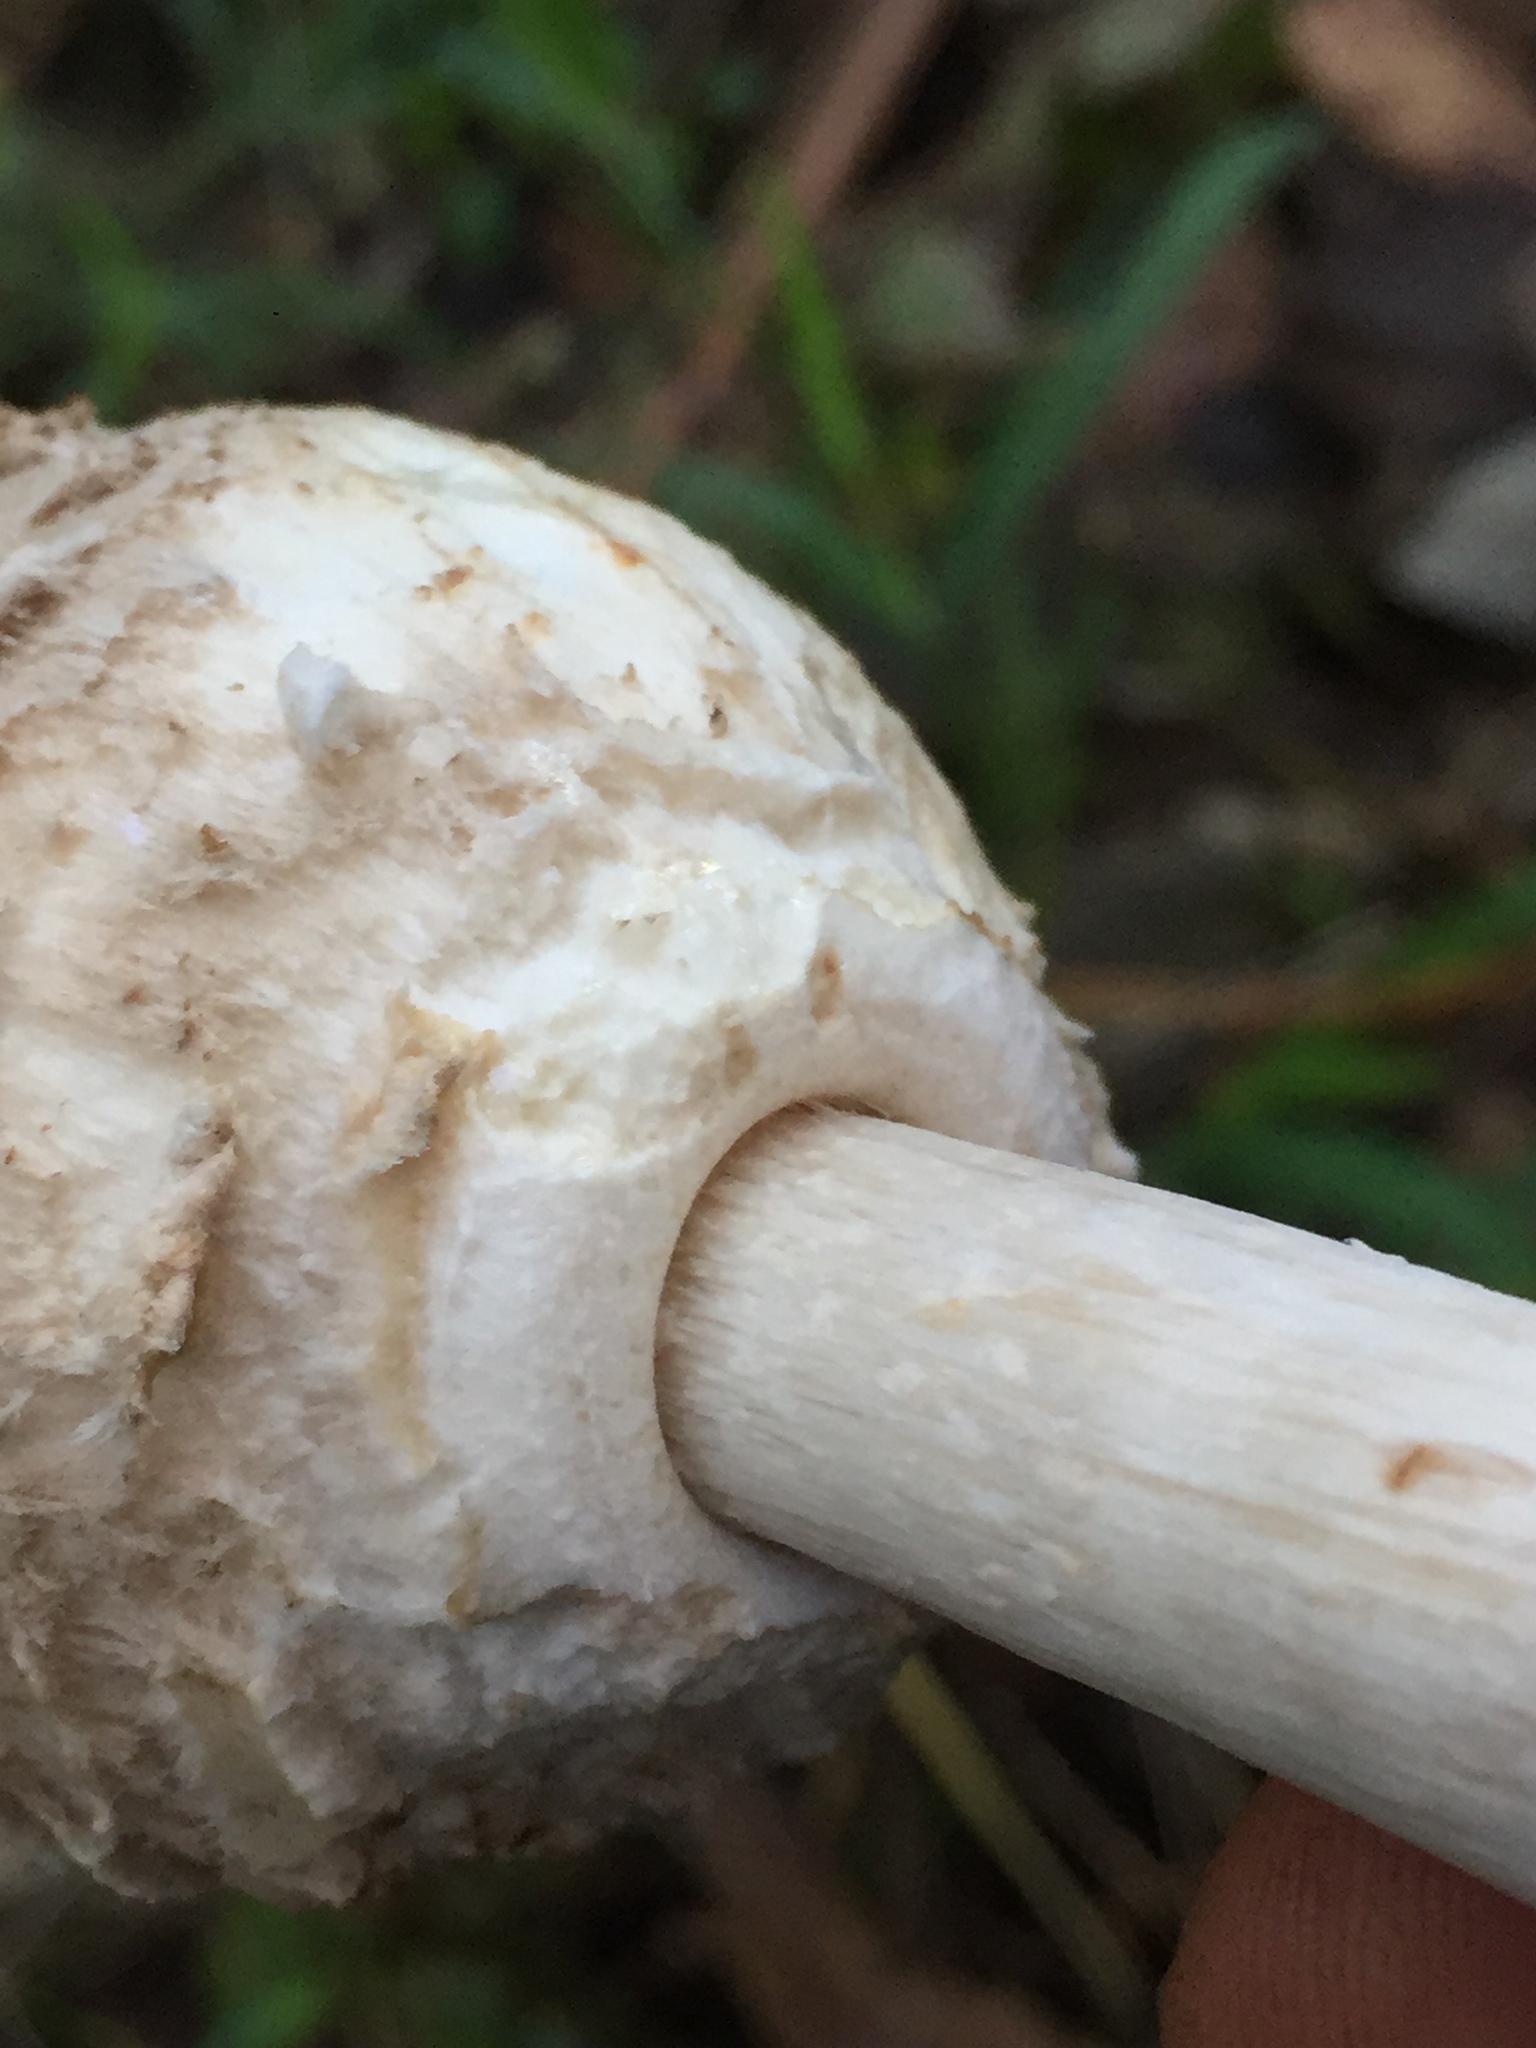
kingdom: Fungi
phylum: Basidiomycota
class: Agaricomycetes
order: Agaricales
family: Agaricaceae
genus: Chlorophyllum
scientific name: Chlorophyllum olivieri
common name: Conifer parasol
